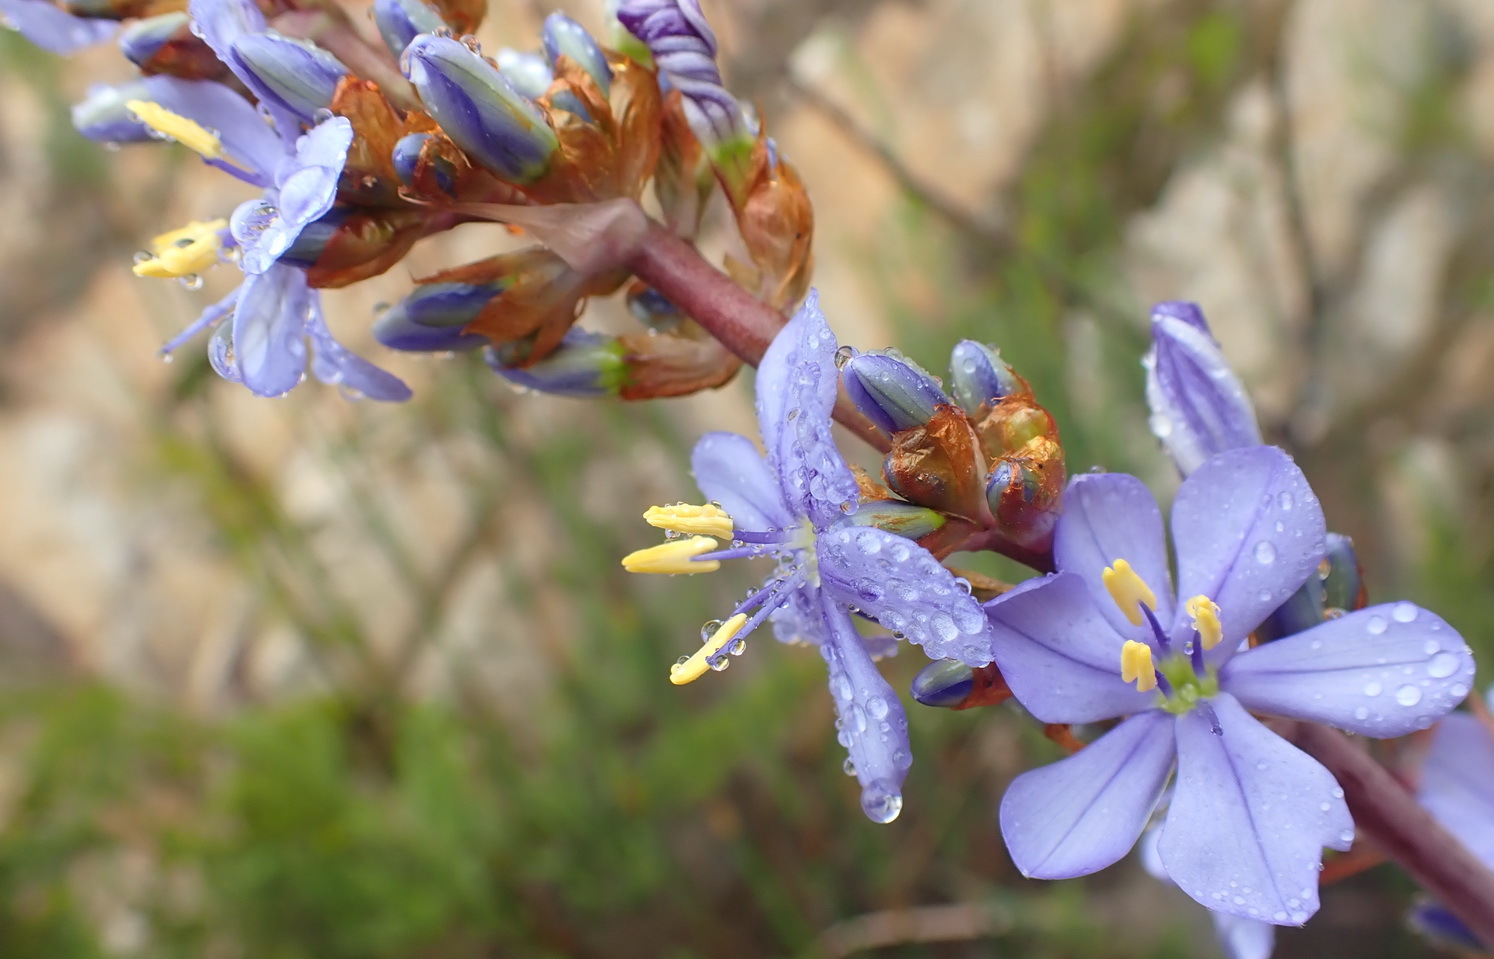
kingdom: Plantae
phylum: Tracheophyta
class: Liliopsida
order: Asparagales
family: Iridaceae
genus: Aristea
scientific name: Aristea bakeri
